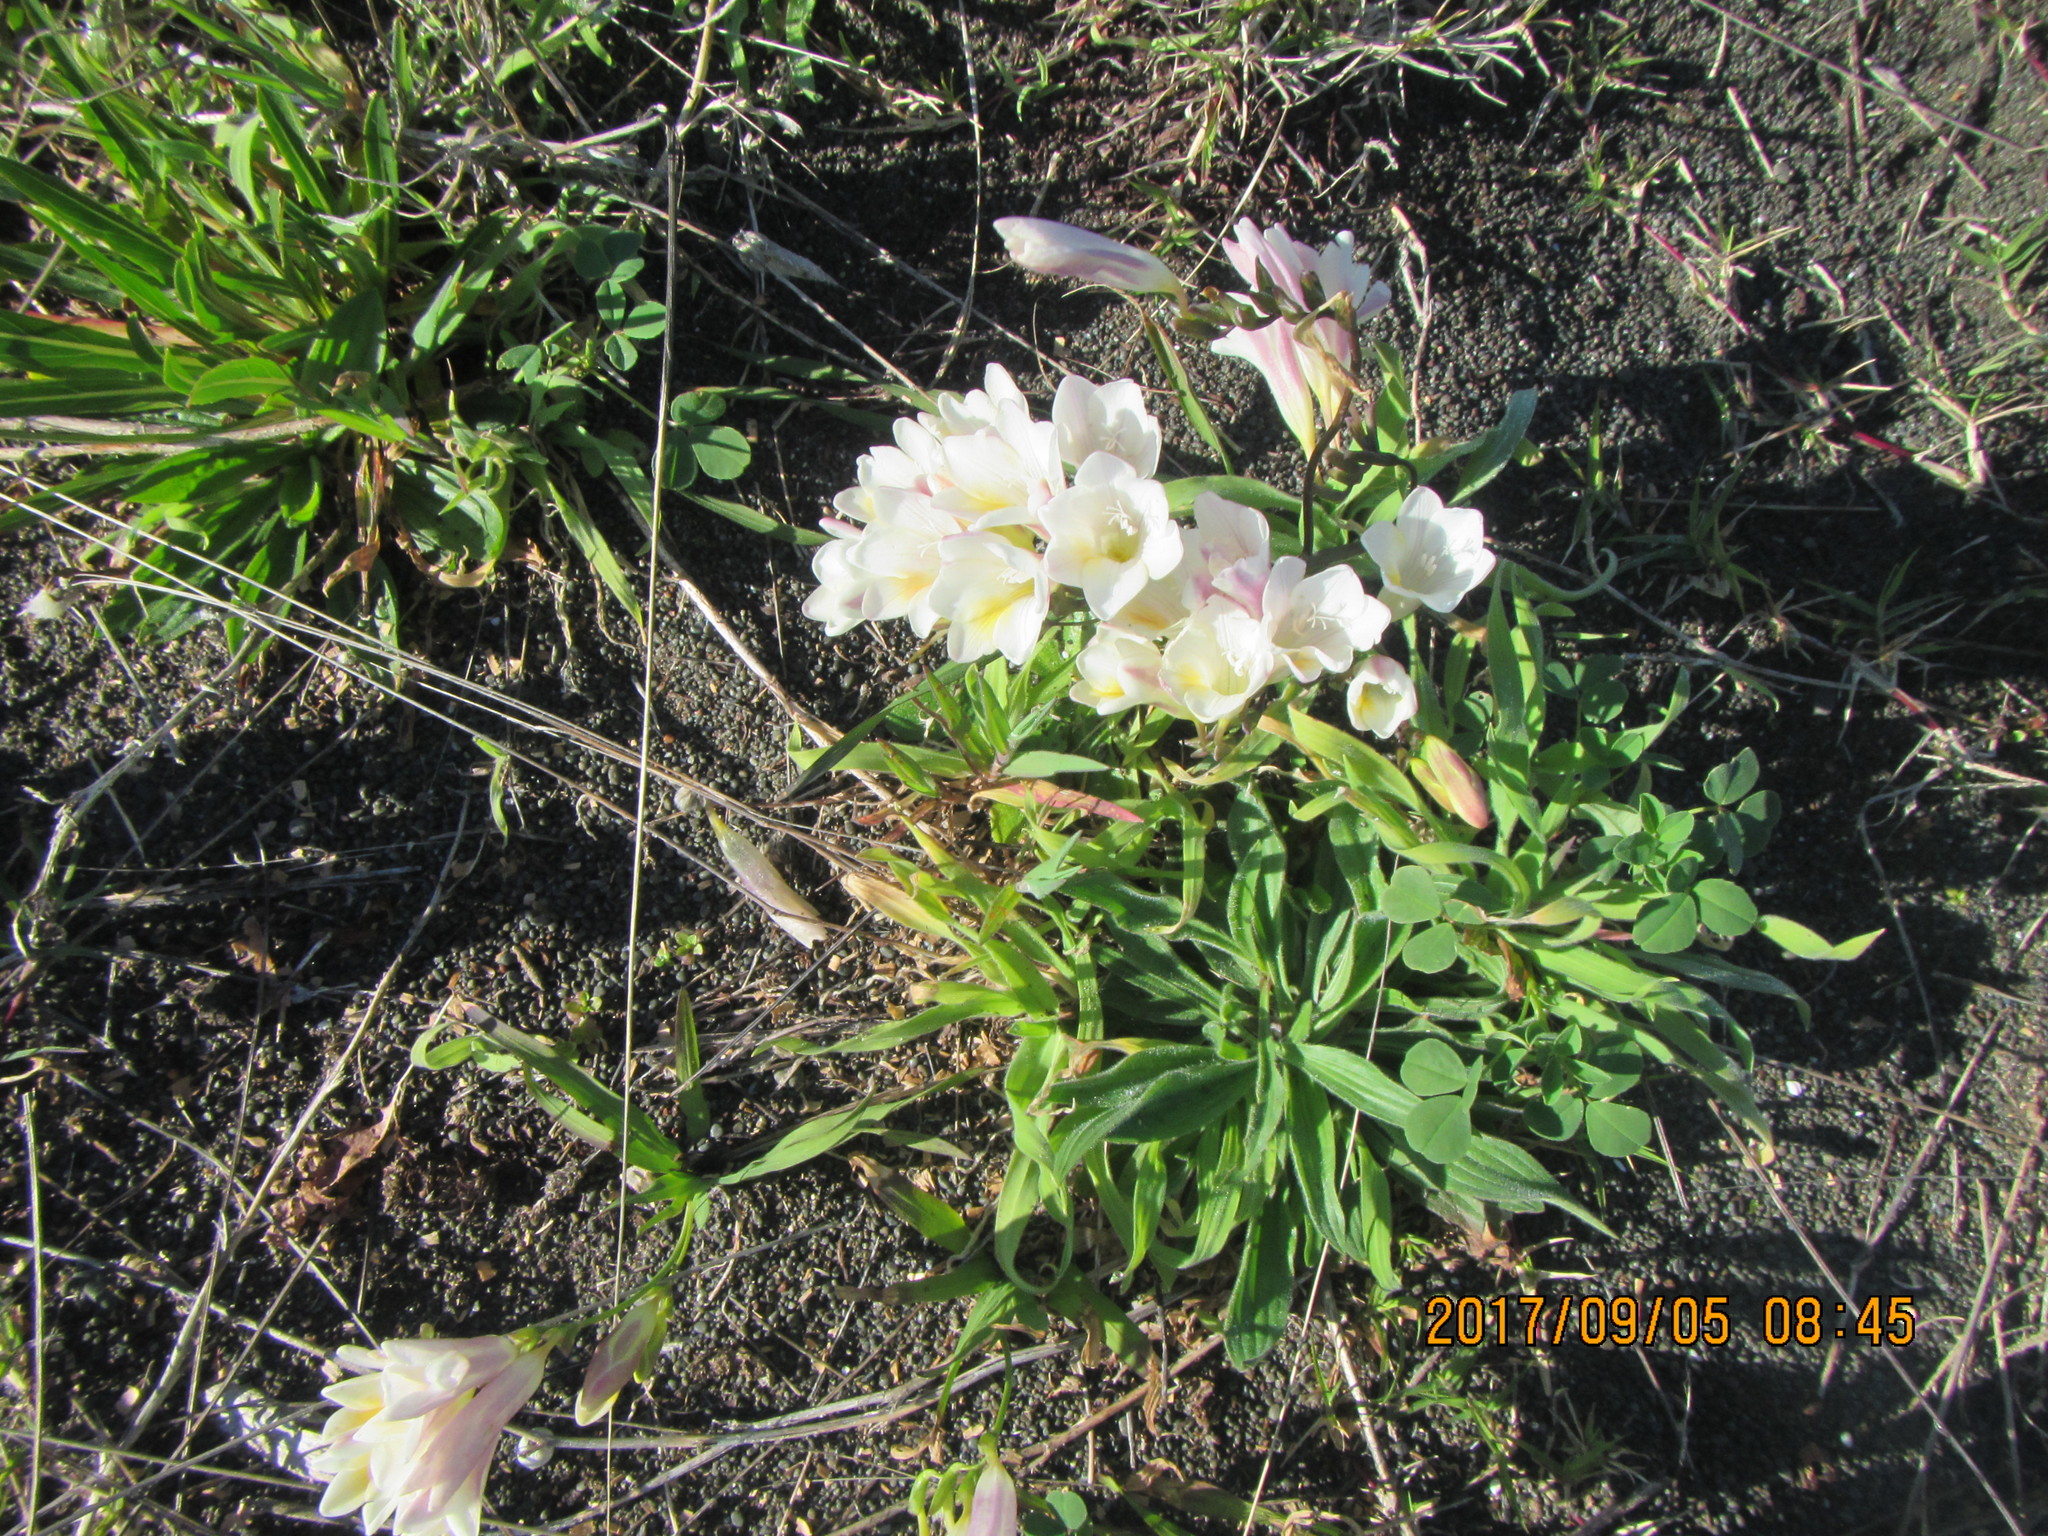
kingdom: Plantae
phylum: Tracheophyta
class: Liliopsida
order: Asparagales
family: Iridaceae
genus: Freesia
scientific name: Freesia leichtlinii
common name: Freesia
